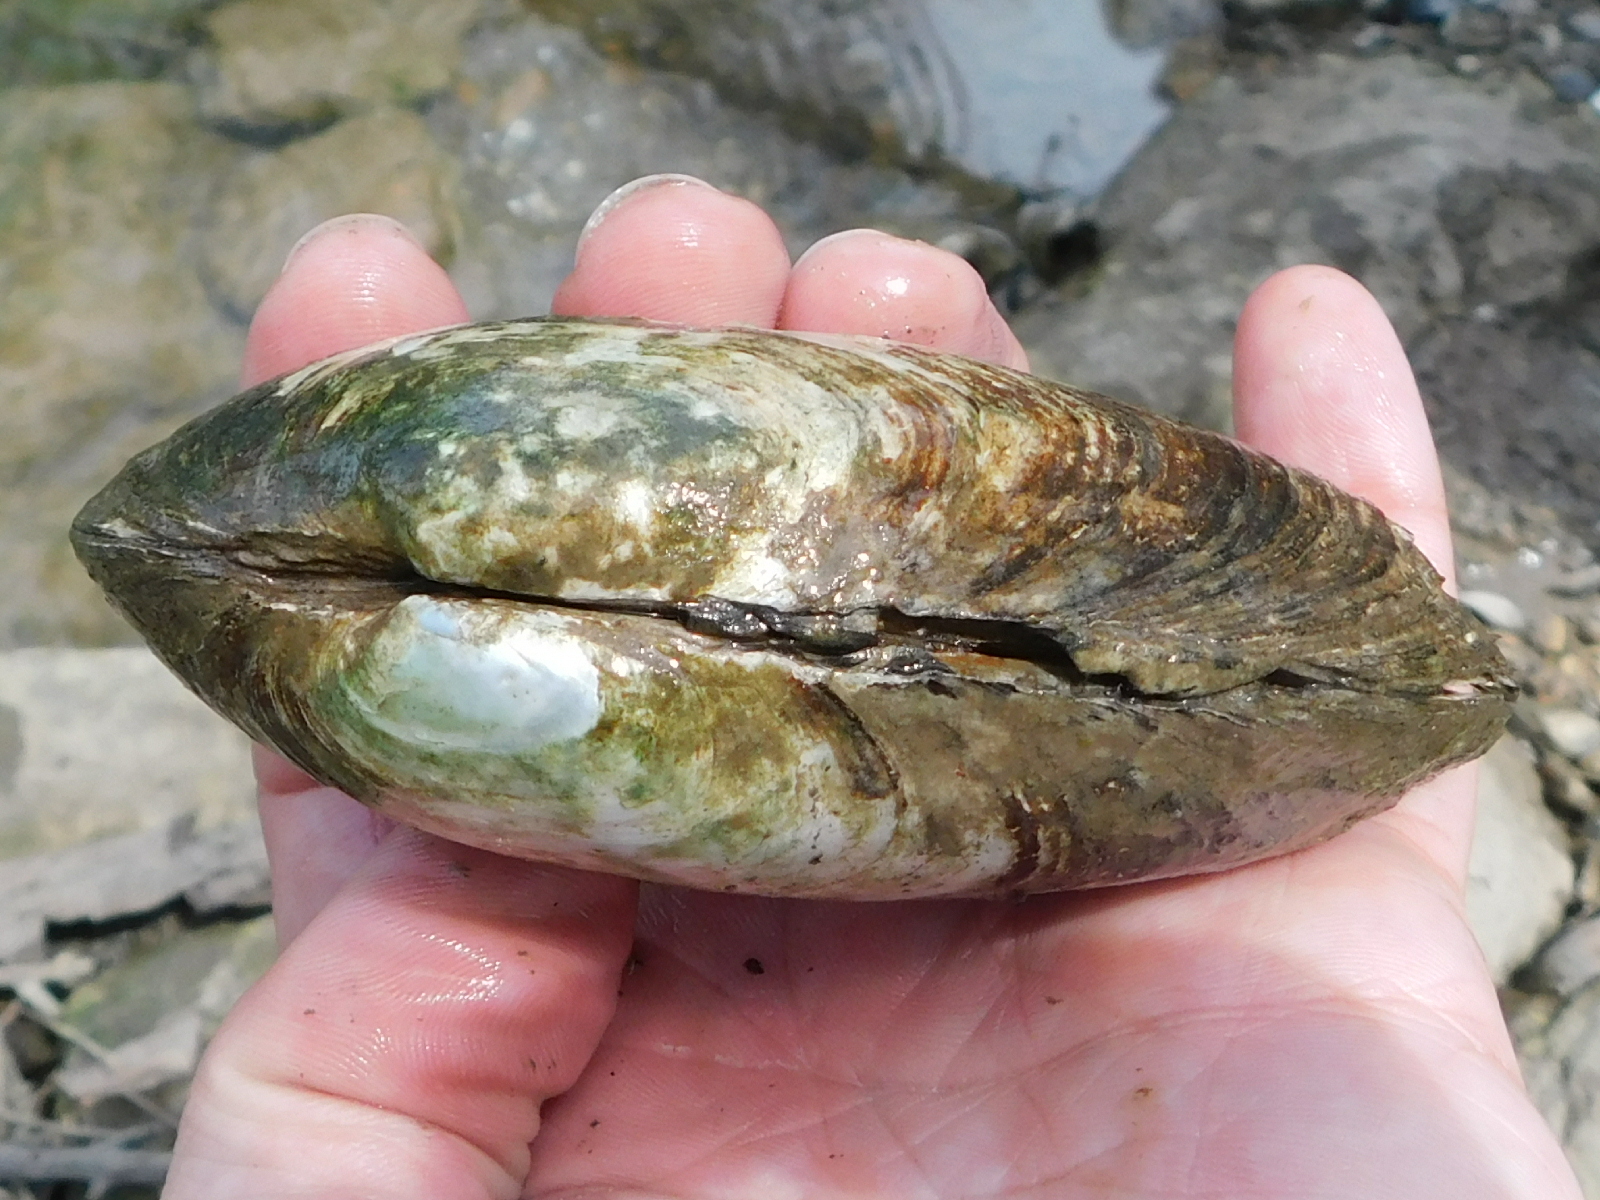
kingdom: Animalia
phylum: Mollusca
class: Bivalvia
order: Unionida
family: Unionidae
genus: Uniomerus
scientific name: Uniomerus declivis
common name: Tapered pondhorn
